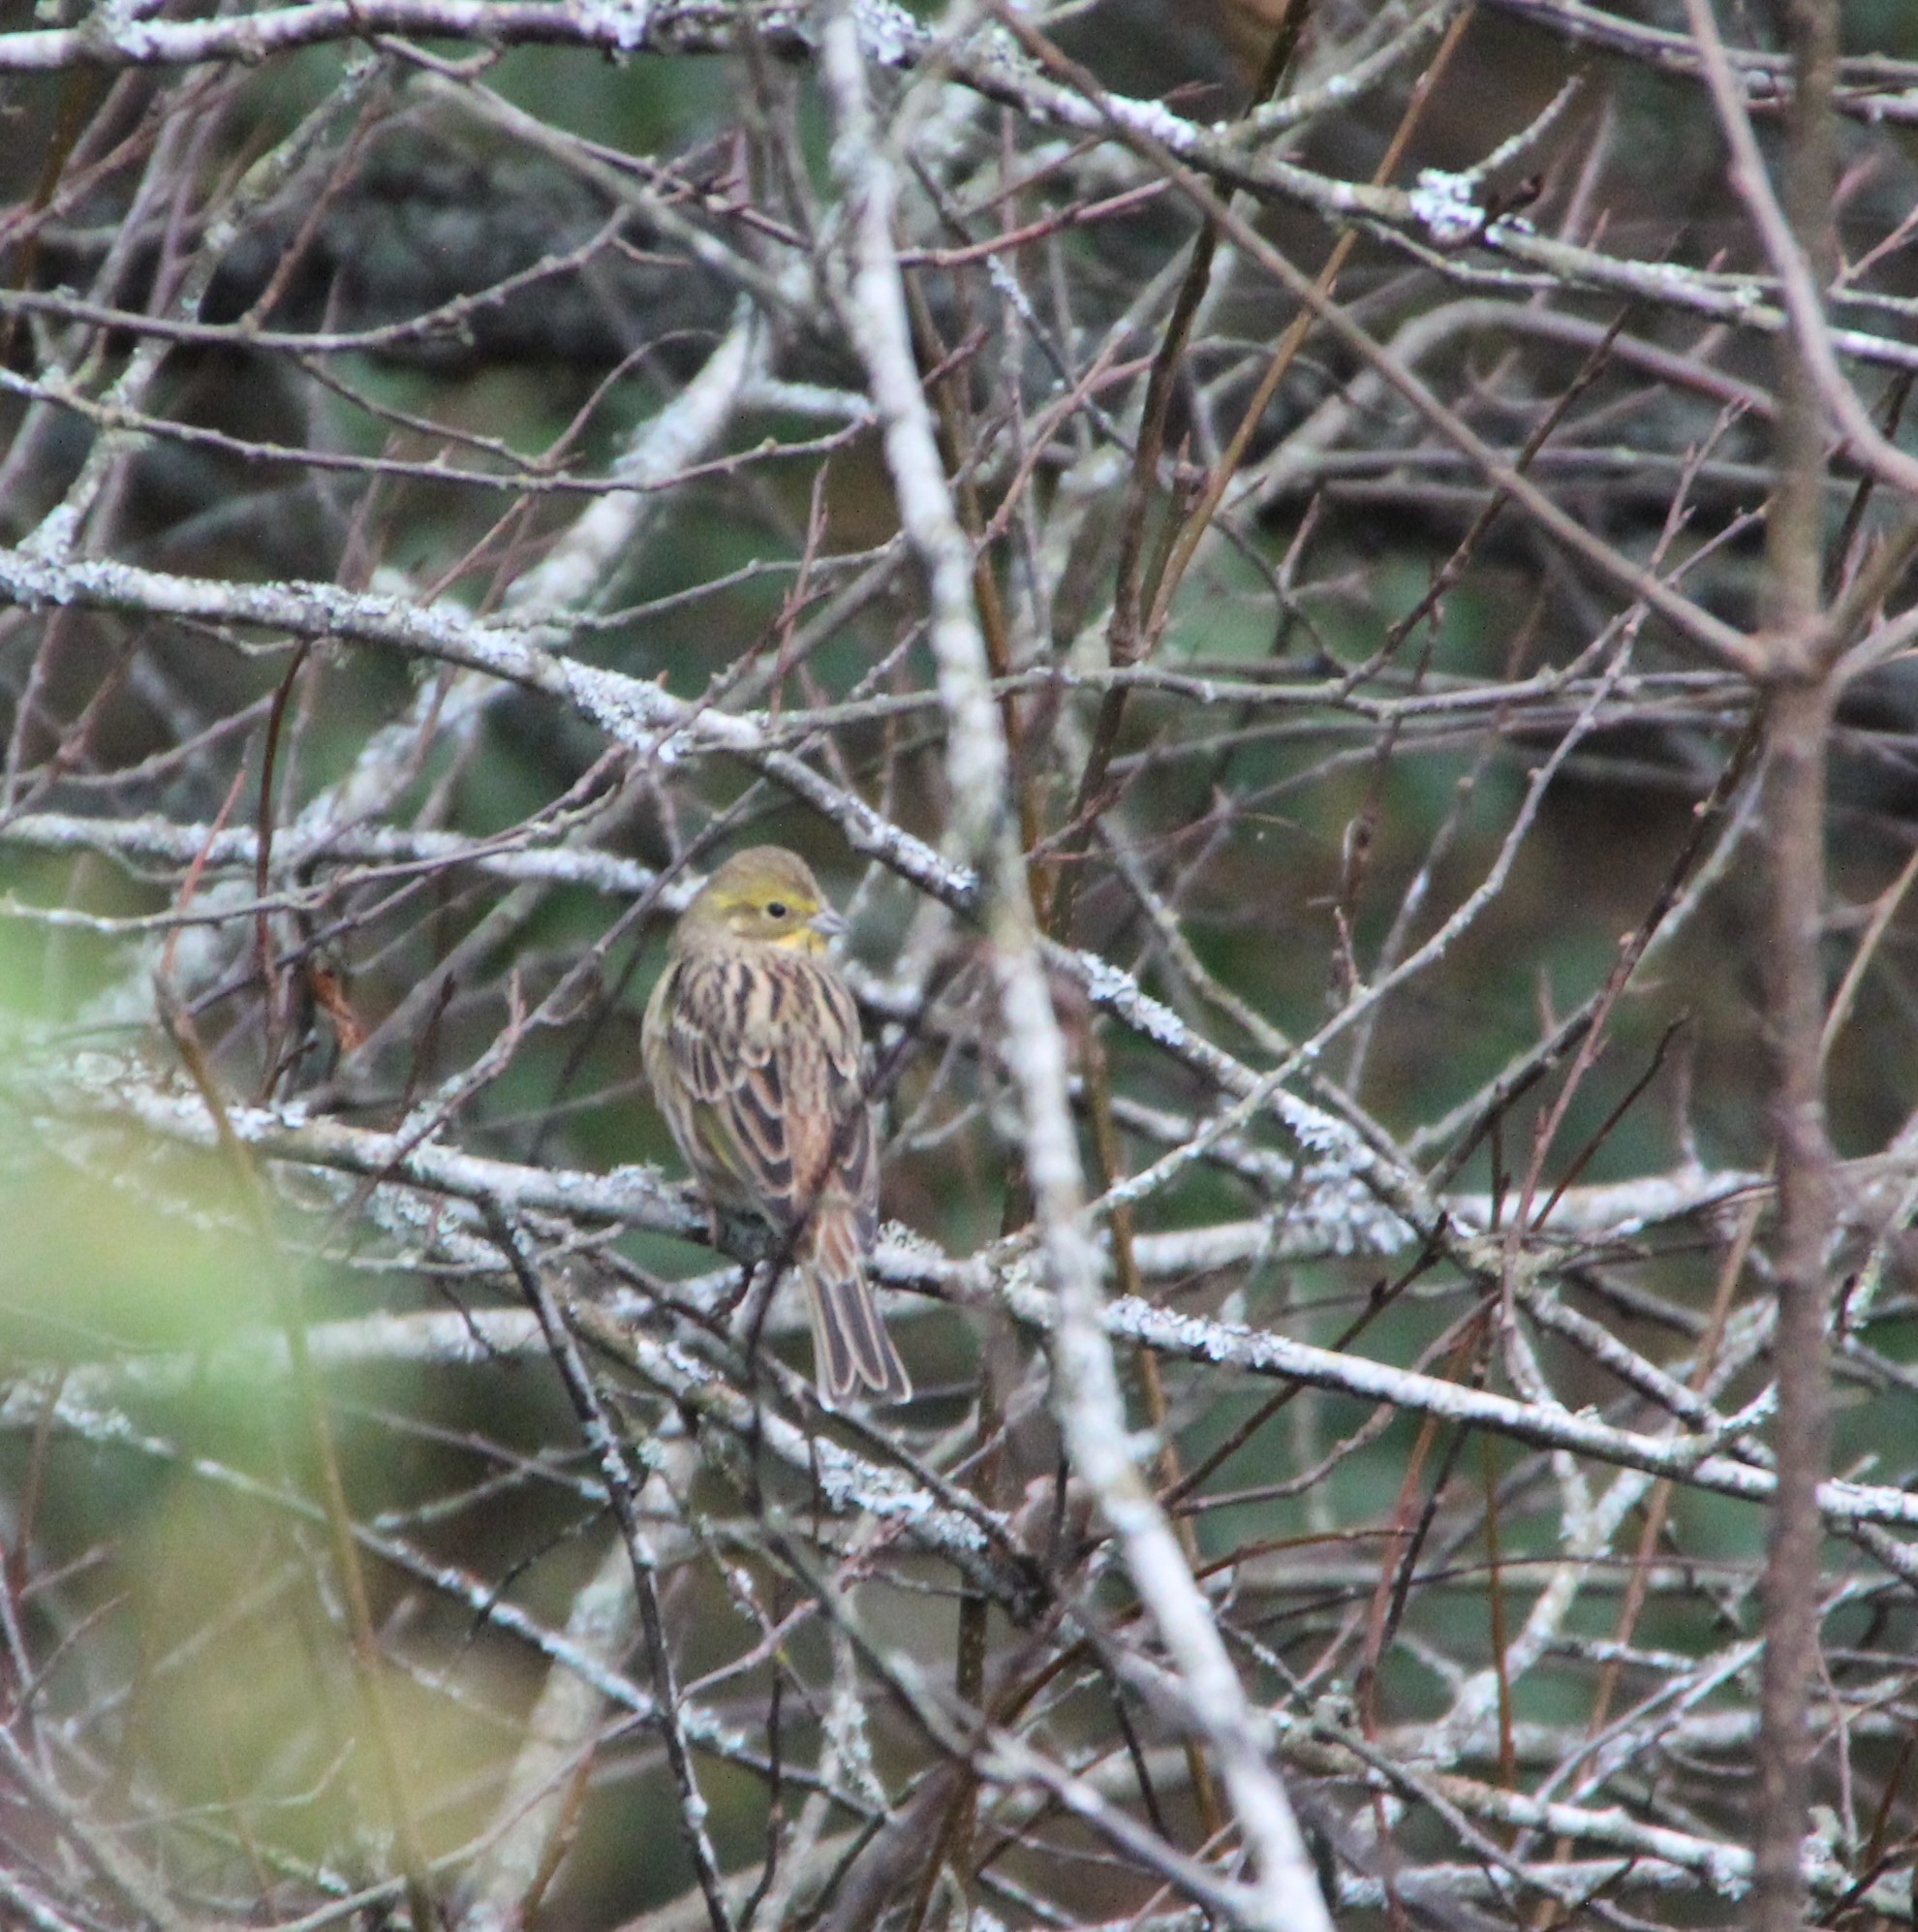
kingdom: Animalia
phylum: Chordata
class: Aves
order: Passeriformes
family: Emberizidae
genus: Emberiza
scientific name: Emberiza citrinella
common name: Yellowhammer
